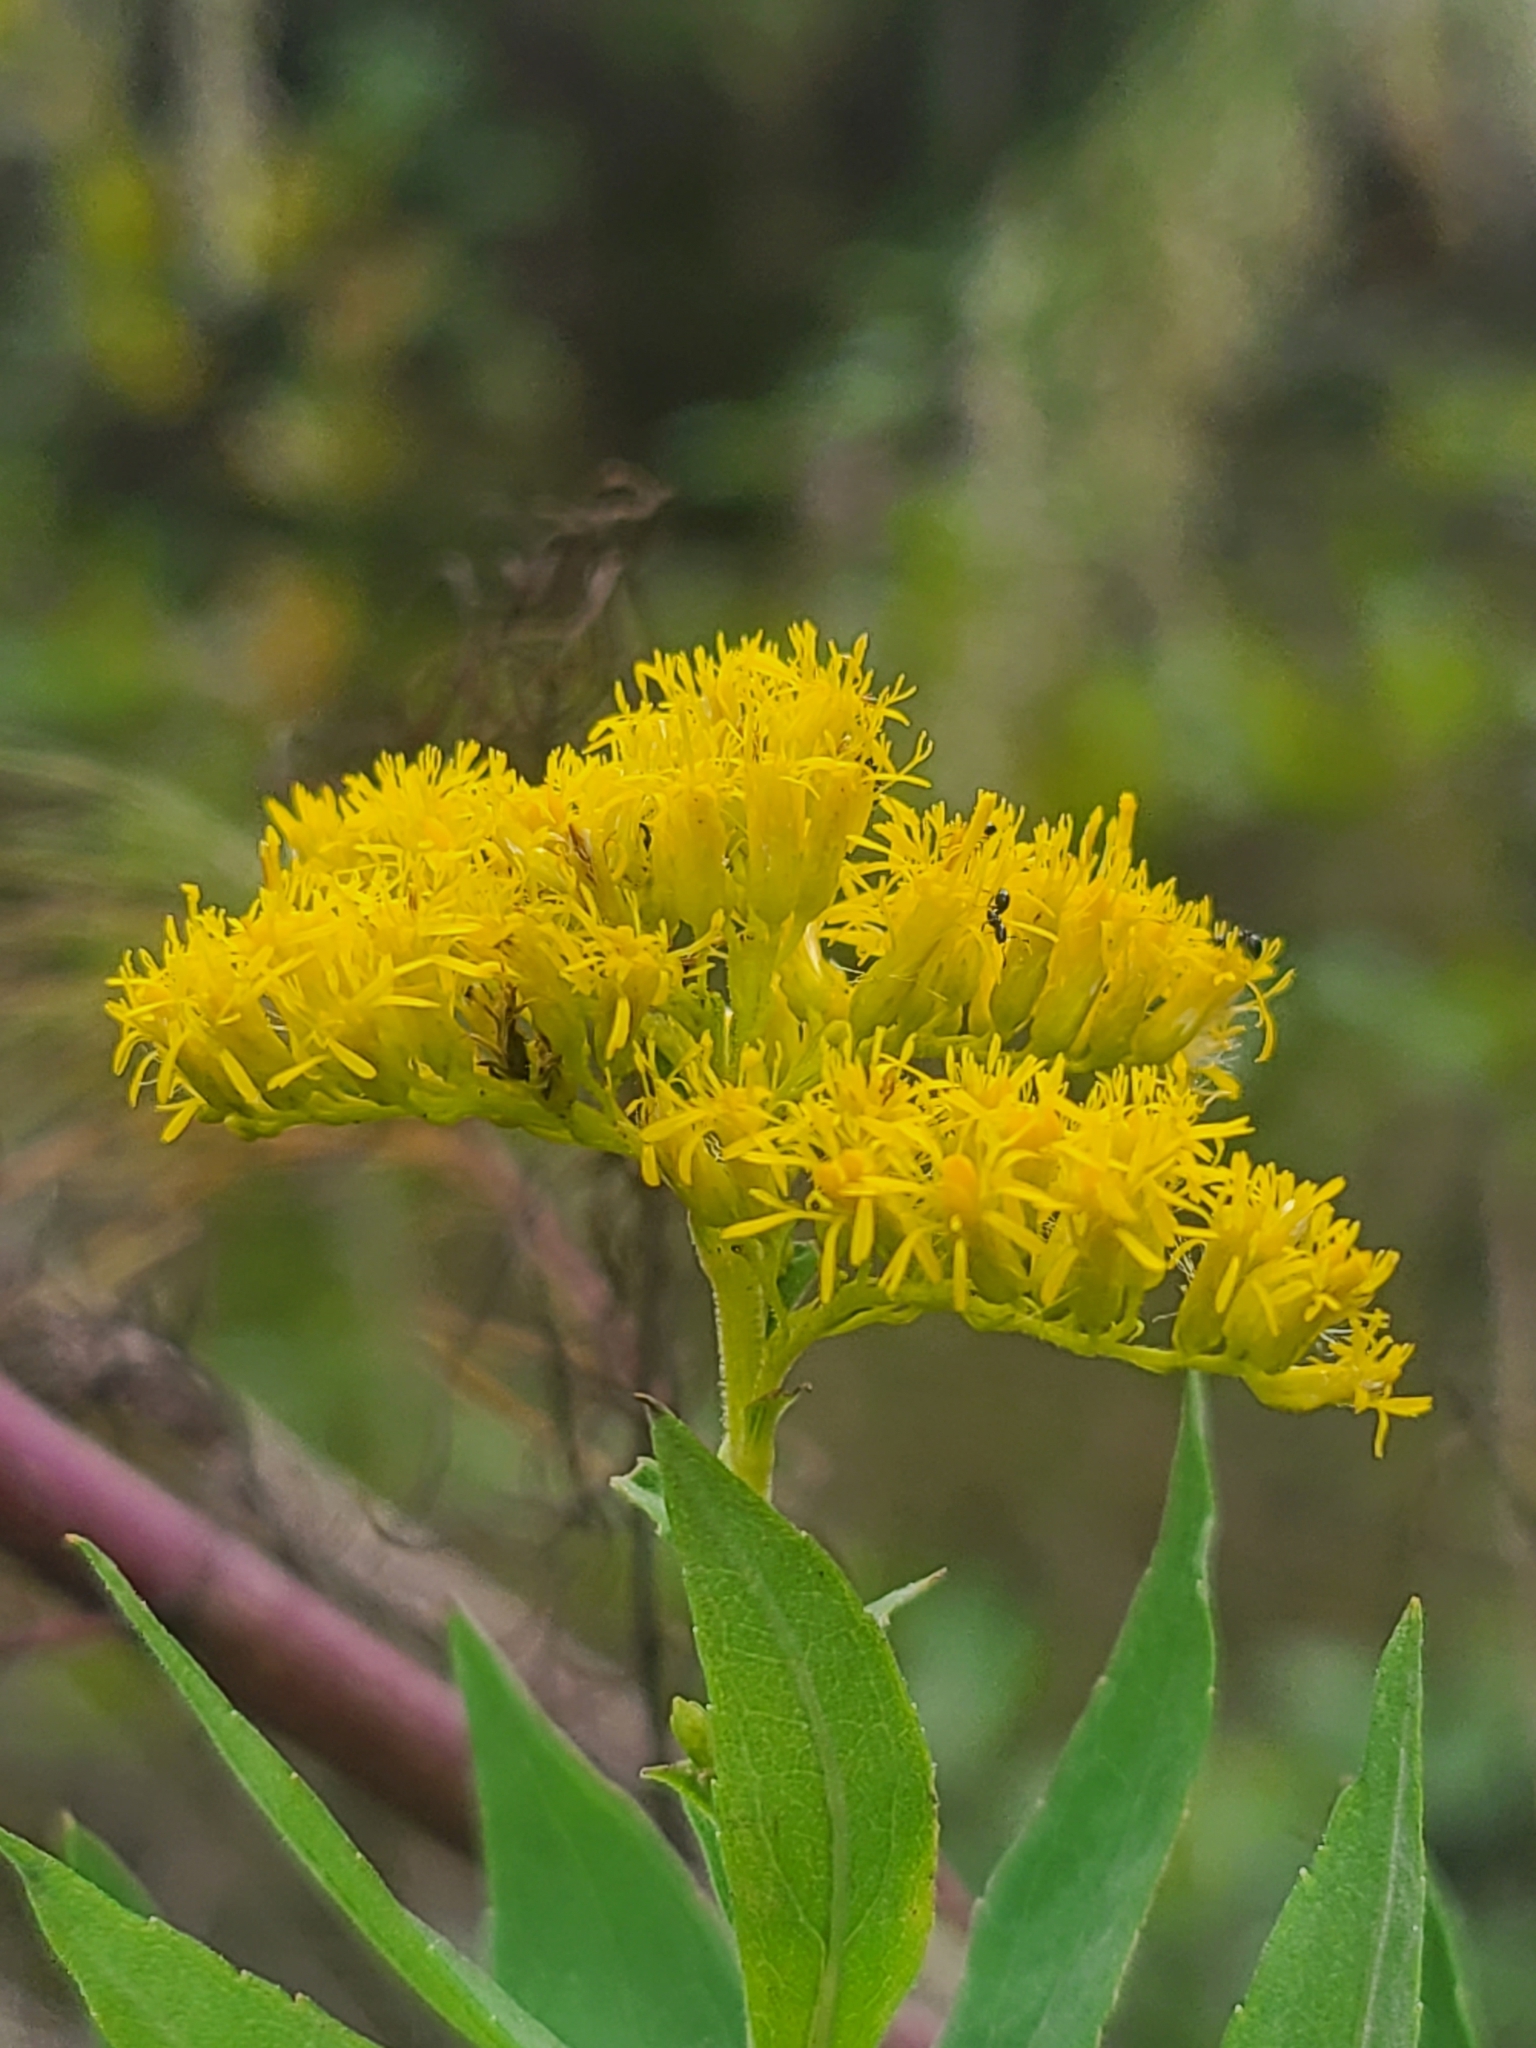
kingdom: Plantae
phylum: Tracheophyta
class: Magnoliopsida
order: Asterales
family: Asteraceae
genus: Solidago
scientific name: Solidago altissima
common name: Late goldenrod
